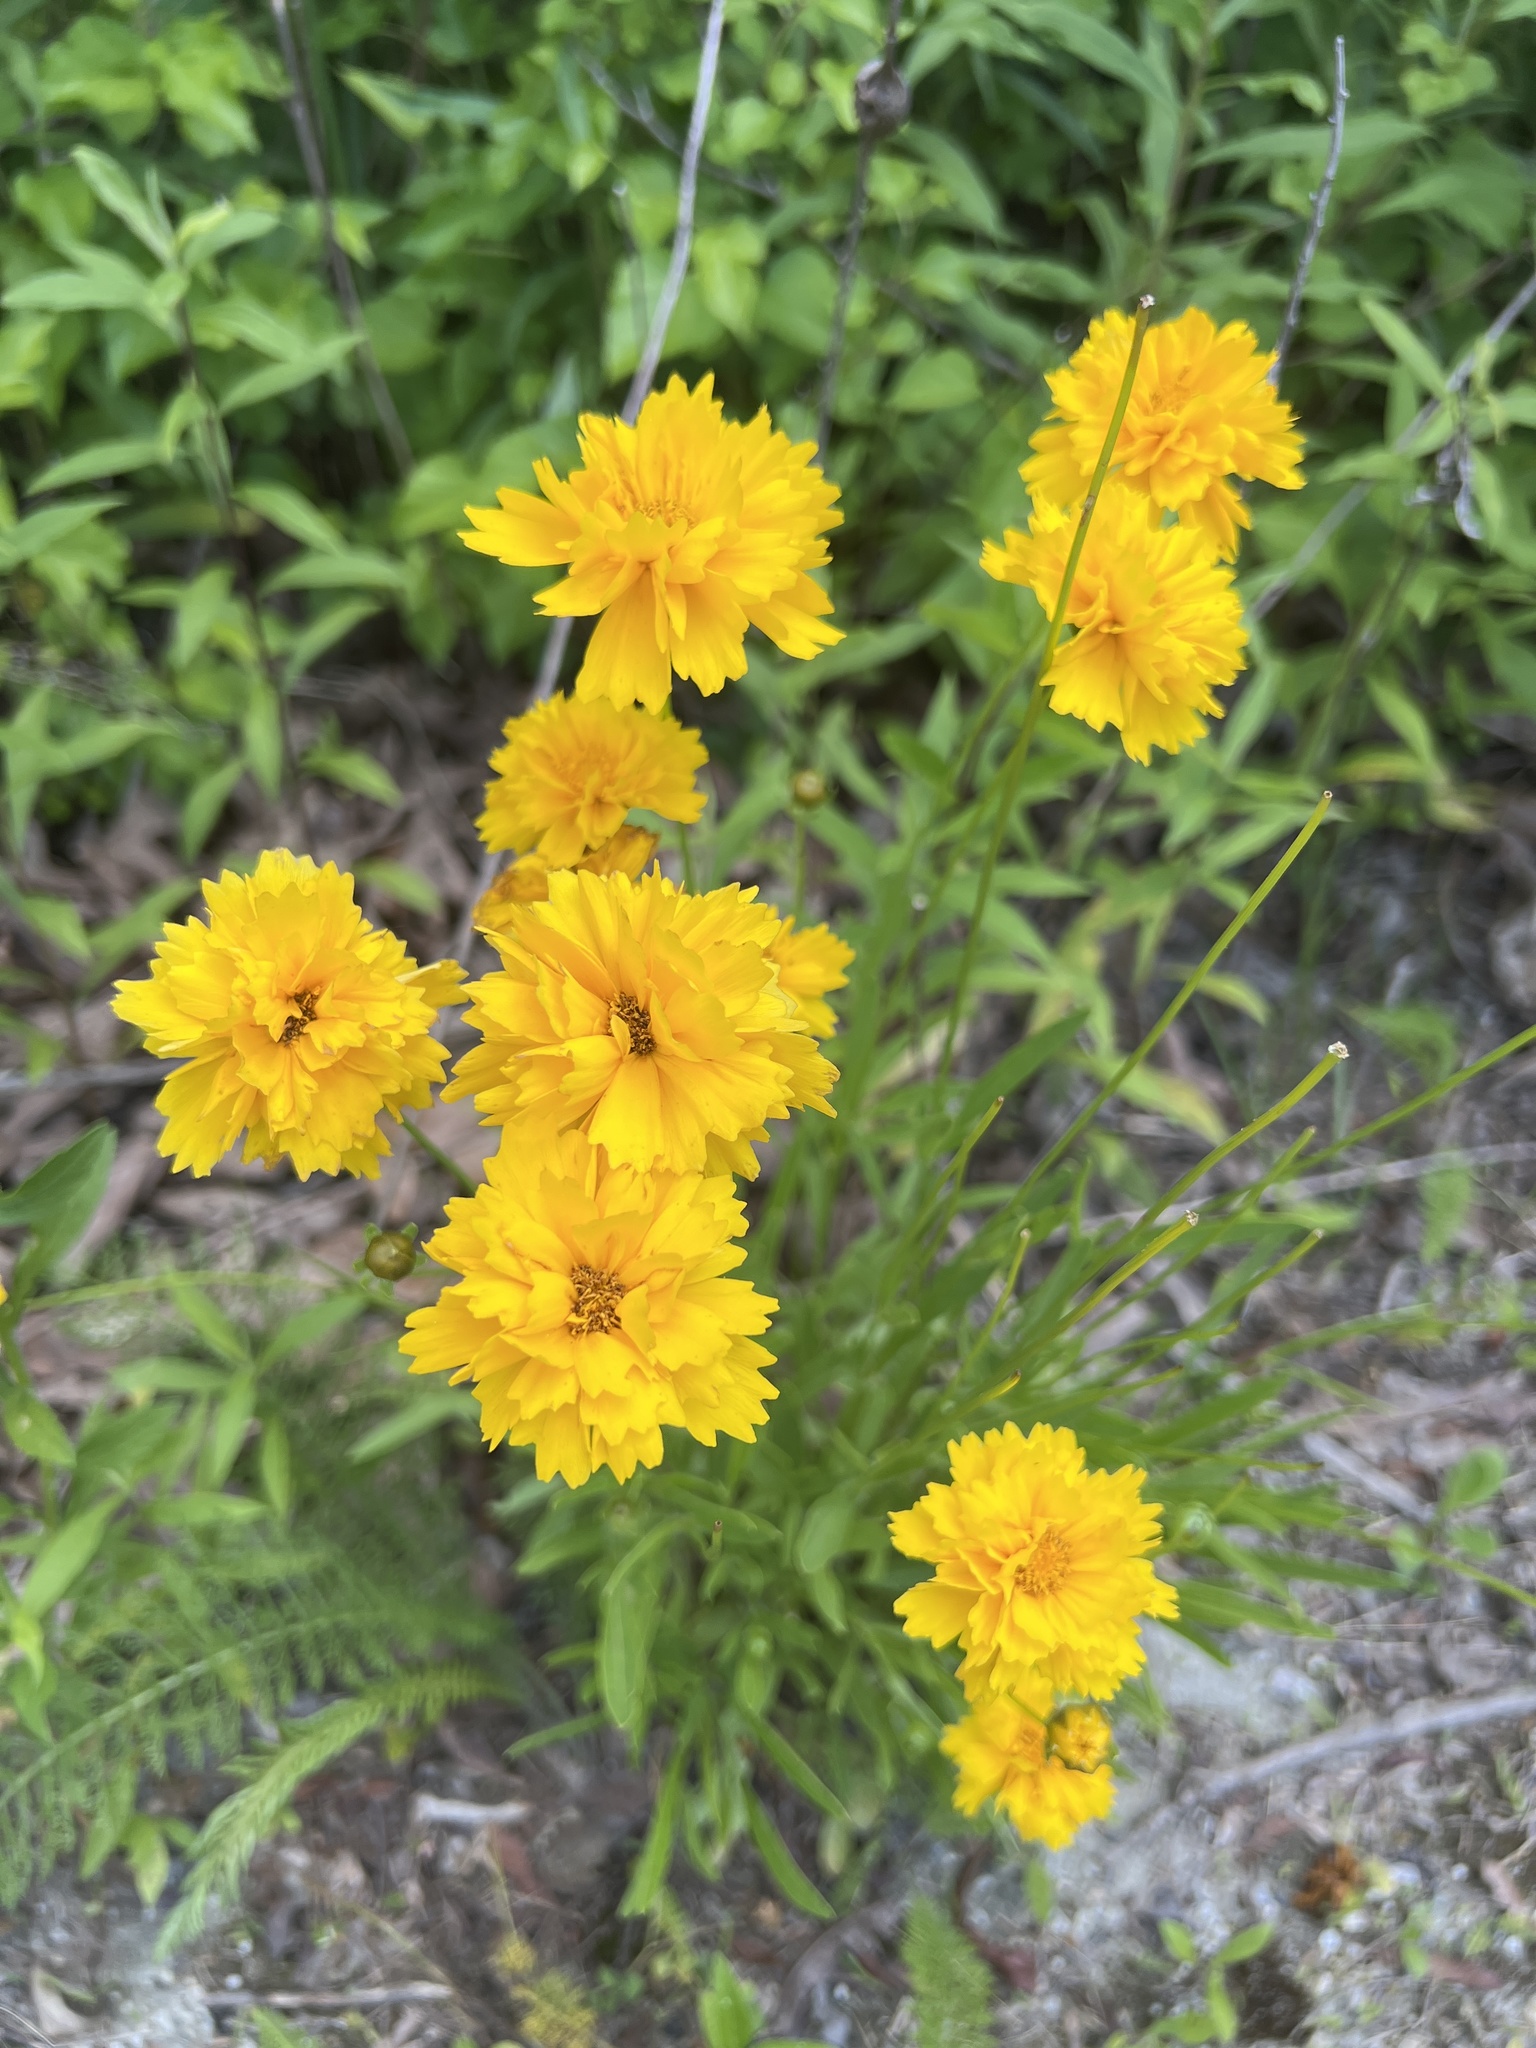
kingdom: Plantae
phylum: Tracheophyta
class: Magnoliopsida
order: Asterales
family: Asteraceae
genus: Coreopsis
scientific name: Coreopsis lanceolata
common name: Garden coreopsis
